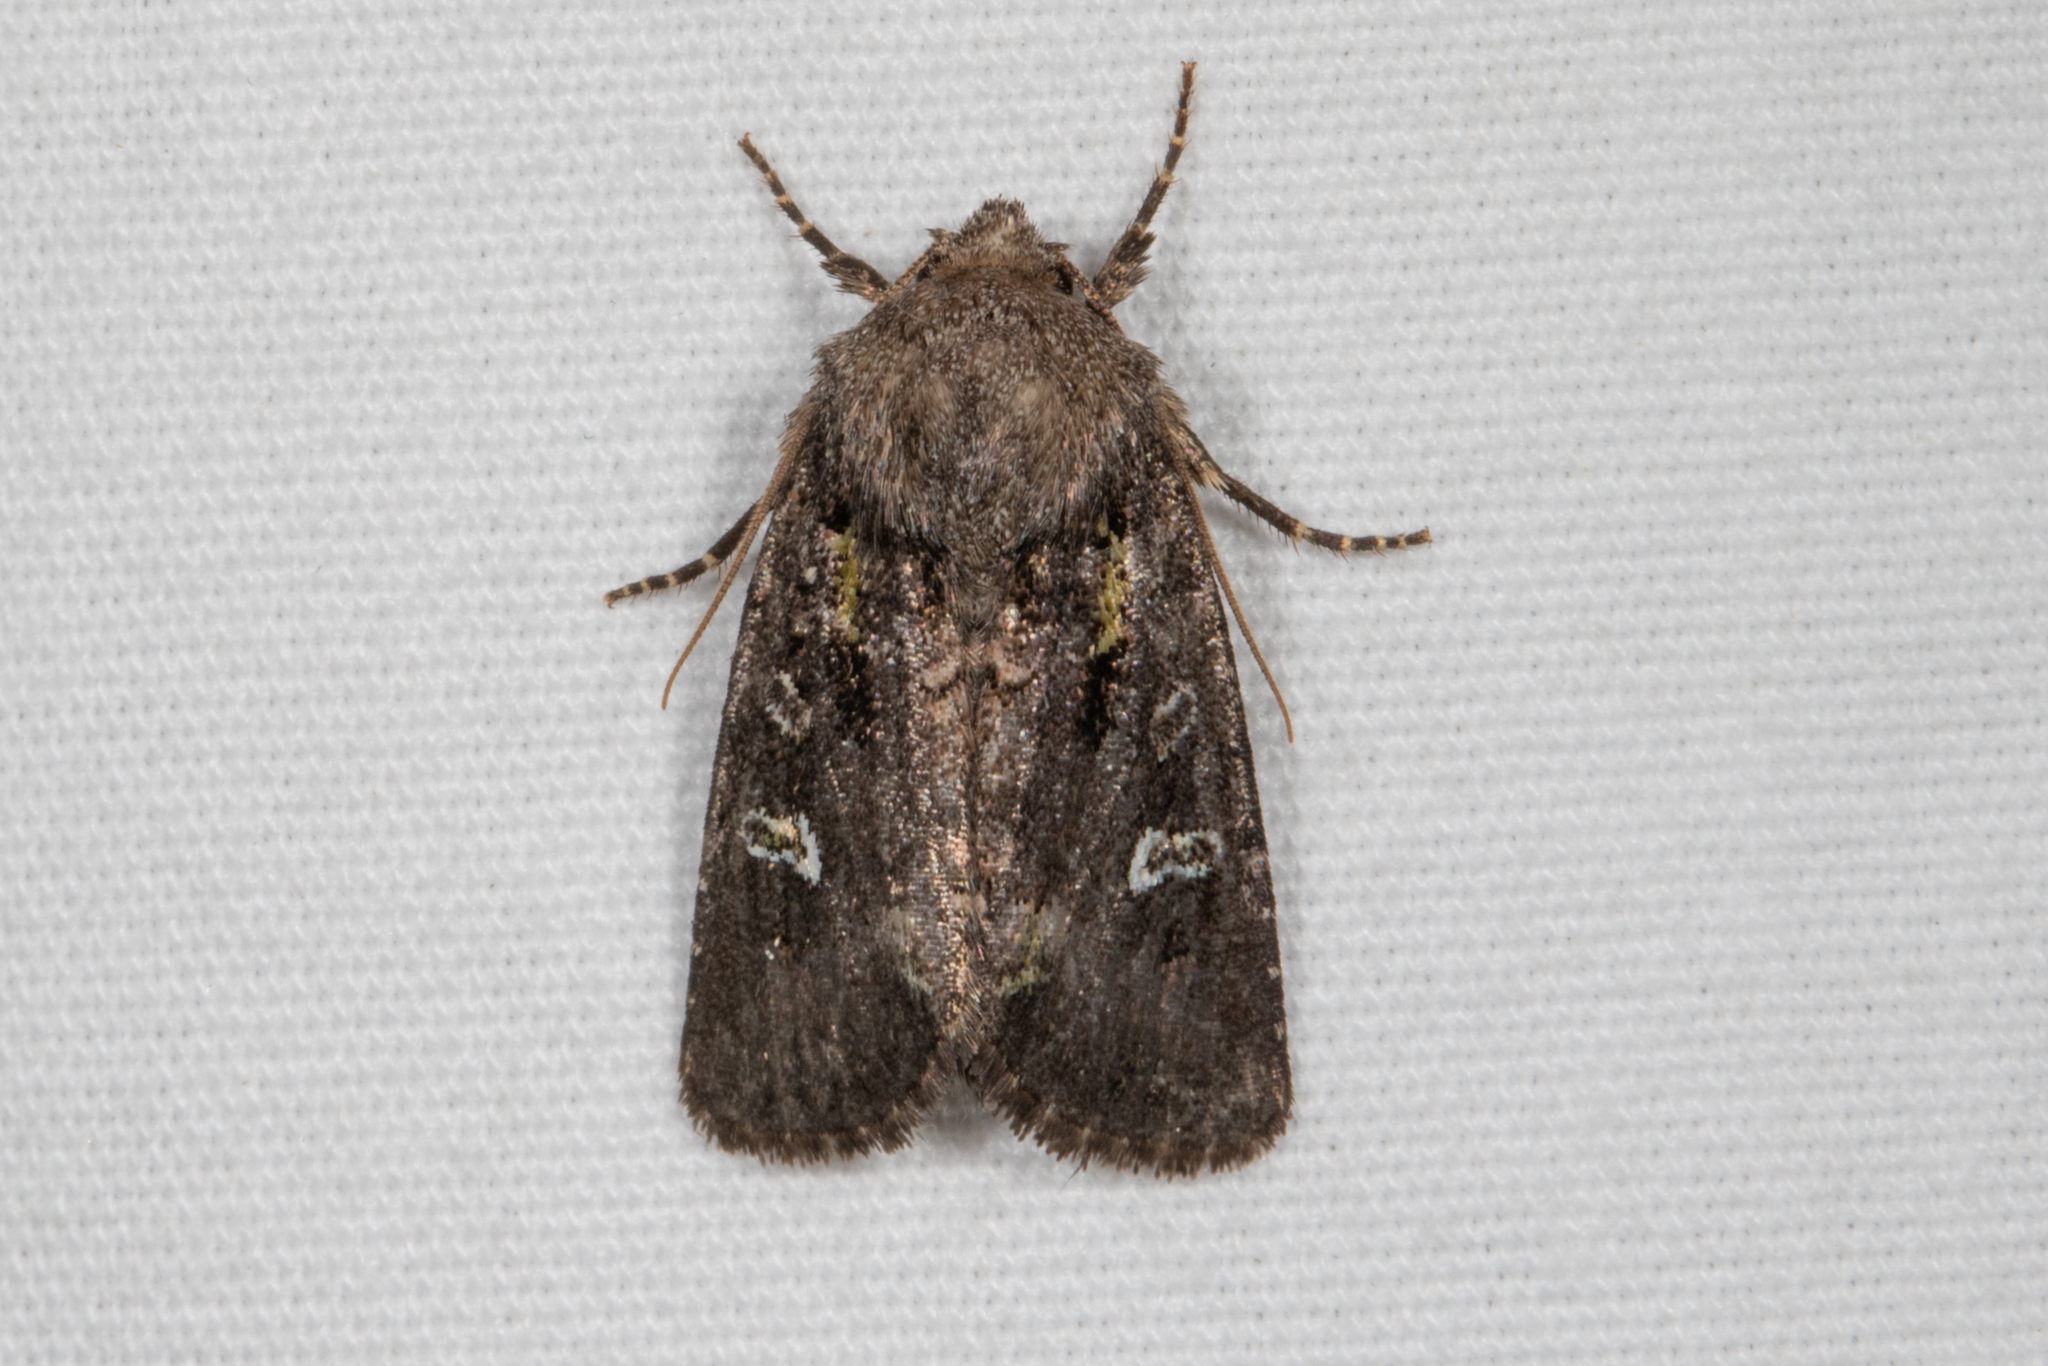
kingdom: Animalia
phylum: Arthropoda
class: Insecta
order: Lepidoptera
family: Noctuidae
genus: Lacinipolia
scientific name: Lacinipolia renigera
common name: Kidney-spotted minor
